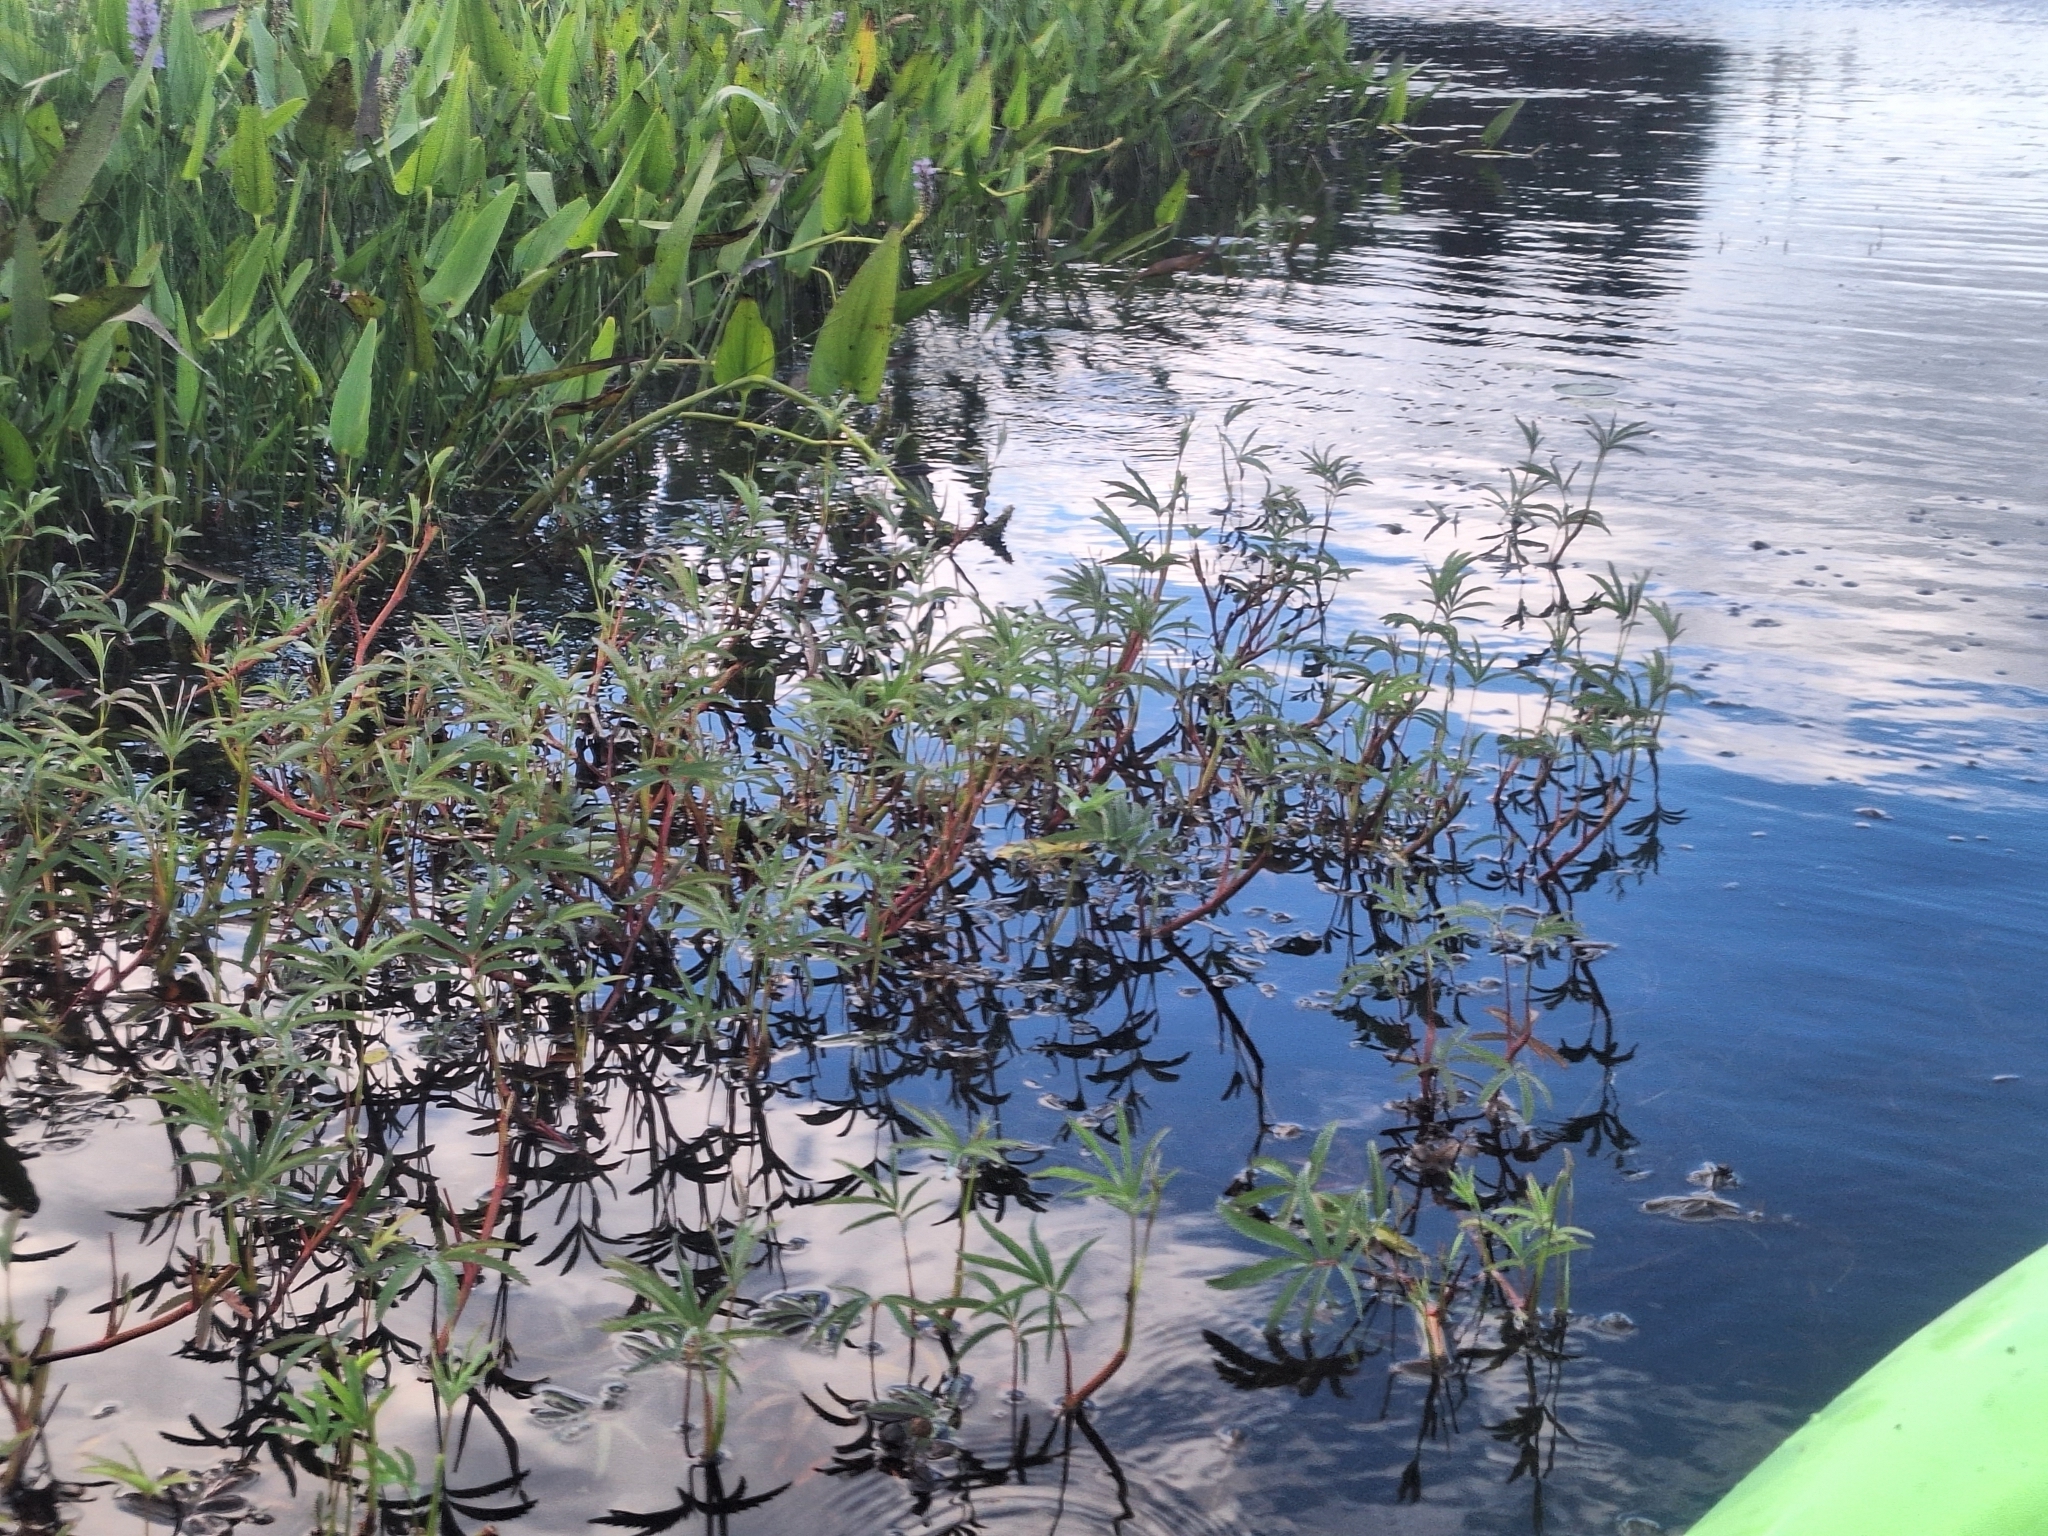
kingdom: Plantae
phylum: Tracheophyta
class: Magnoliopsida
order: Rosales
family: Rosaceae
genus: Comarum
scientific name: Comarum palustre
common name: Marsh cinquefoil
